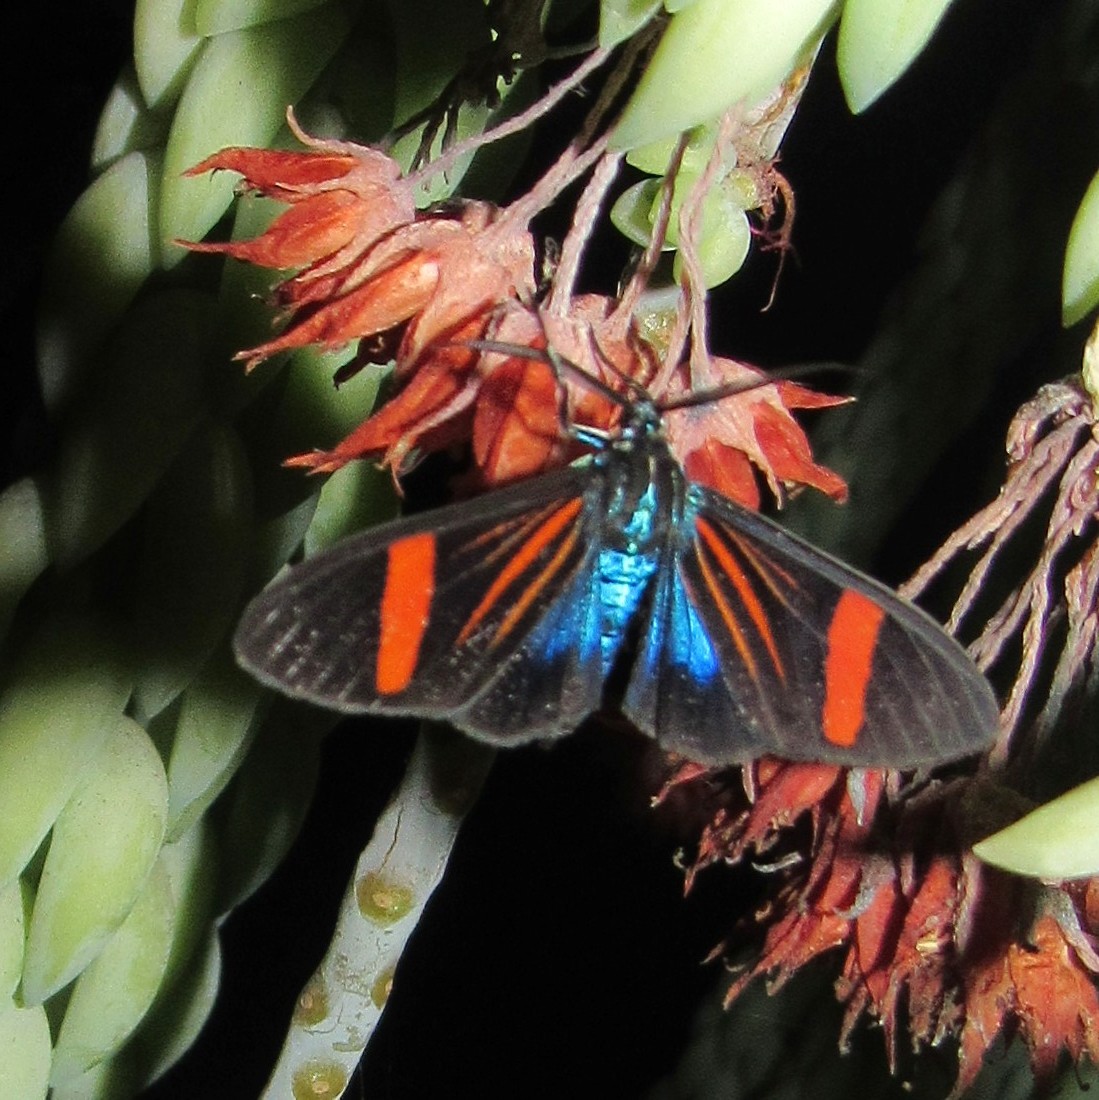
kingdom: Animalia
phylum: Arthropoda
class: Insecta
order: Lepidoptera
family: Erebidae
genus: Callopepla
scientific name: Callopepla inachia
